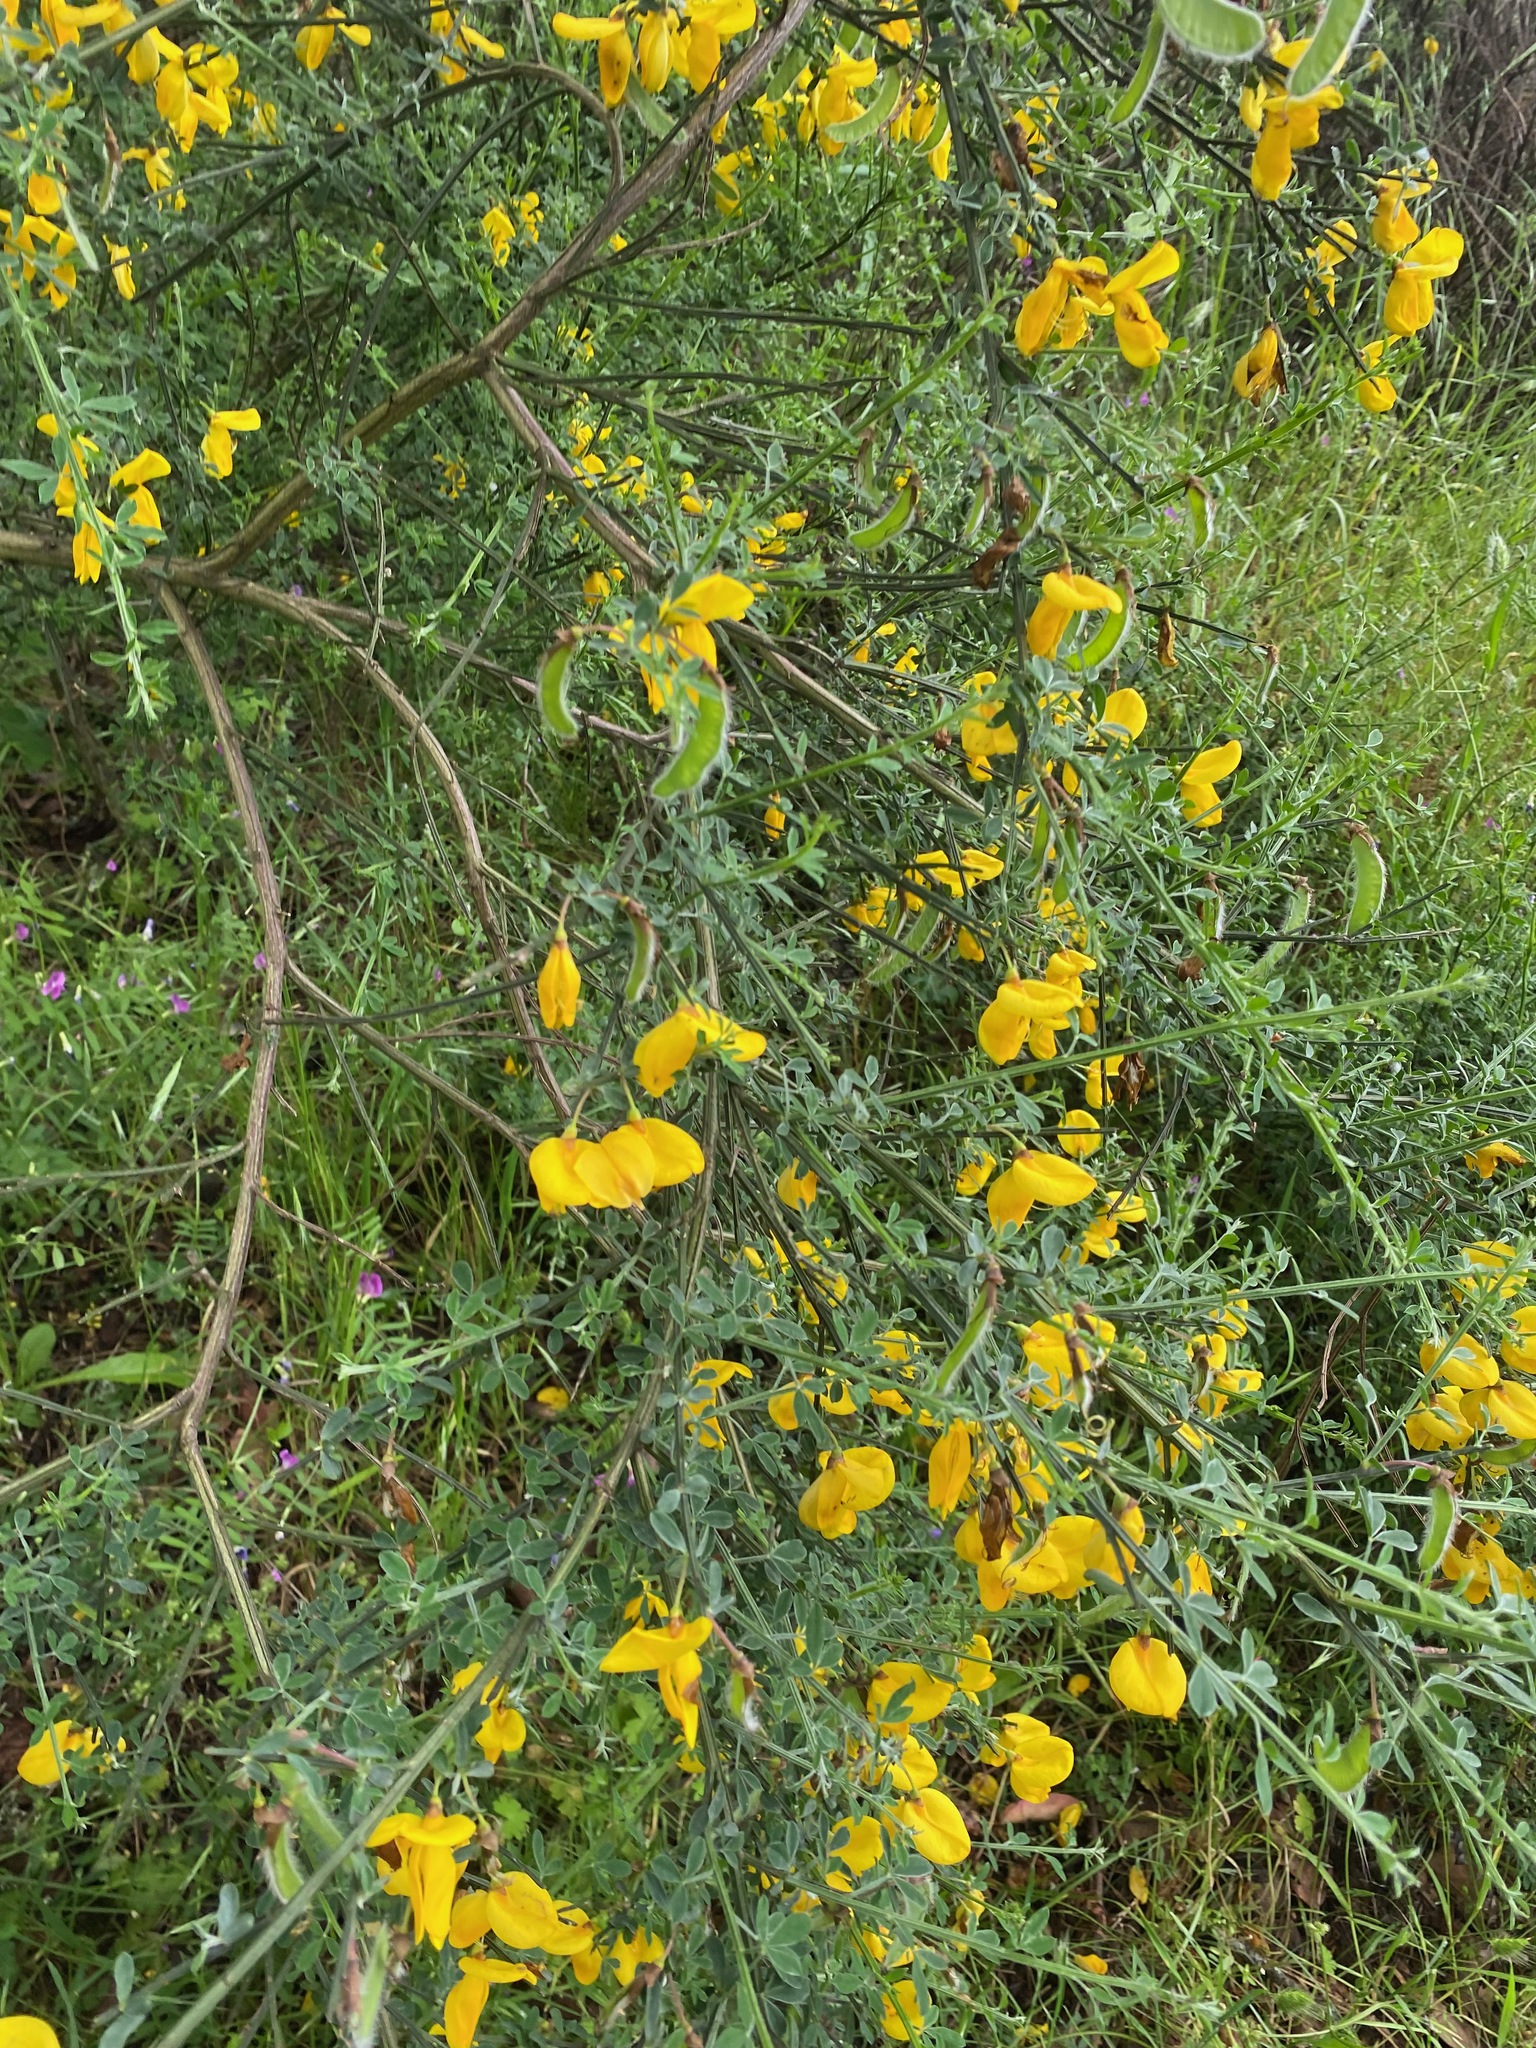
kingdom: Plantae
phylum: Tracheophyta
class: Magnoliopsida
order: Fabales
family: Fabaceae
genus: Cytisus
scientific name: Cytisus scoparius
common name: Scotch broom
